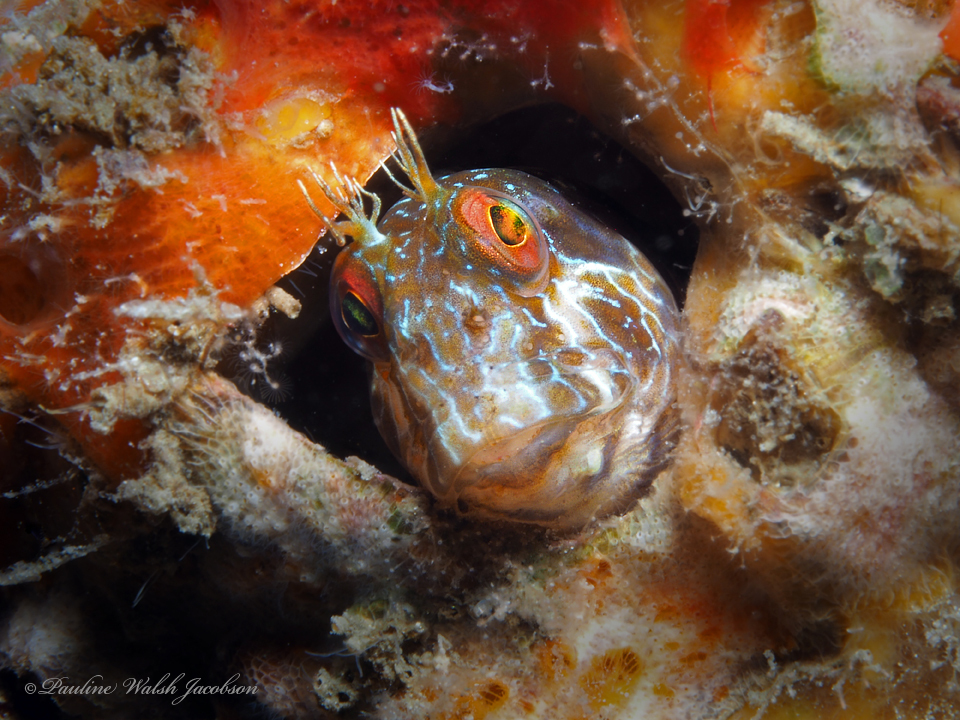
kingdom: Animalia
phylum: Chordata
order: Perciformes
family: Blenniidae
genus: Parablennius
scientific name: Parablennius marmoreus
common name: Seaweed blenny
